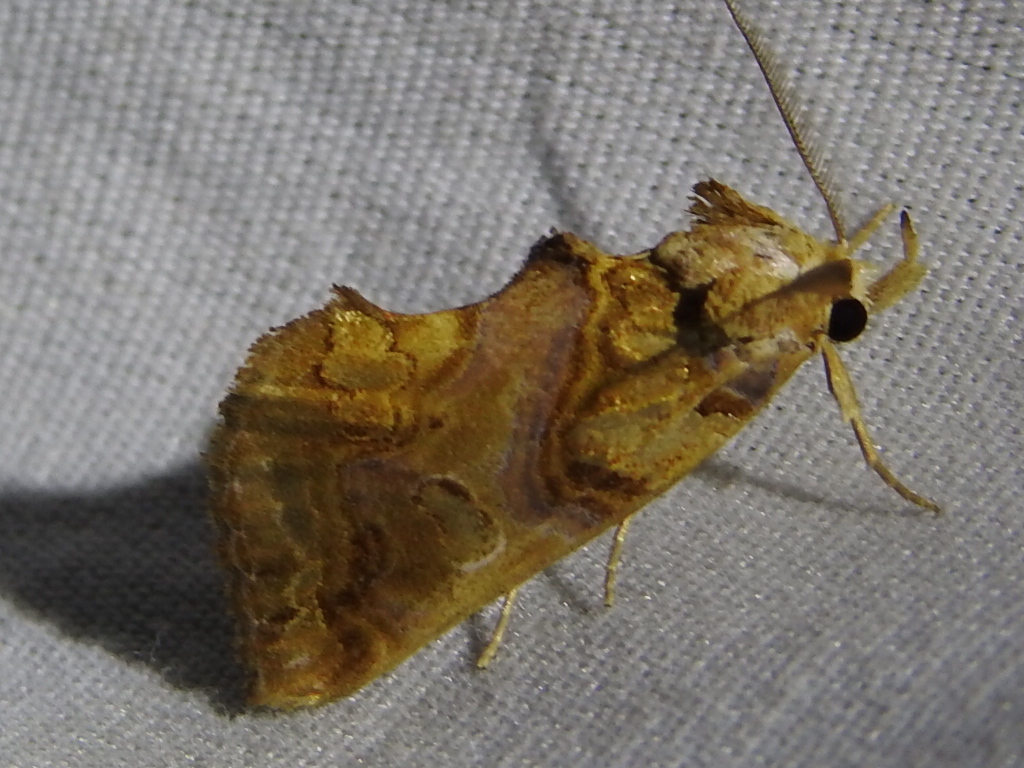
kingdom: Animalia
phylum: Arthropoda
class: Insecta
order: Lepidoptera
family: Erebidae
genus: Plusiodonta
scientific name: Plusiodonta compressipalpis
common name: Moonseed moth
